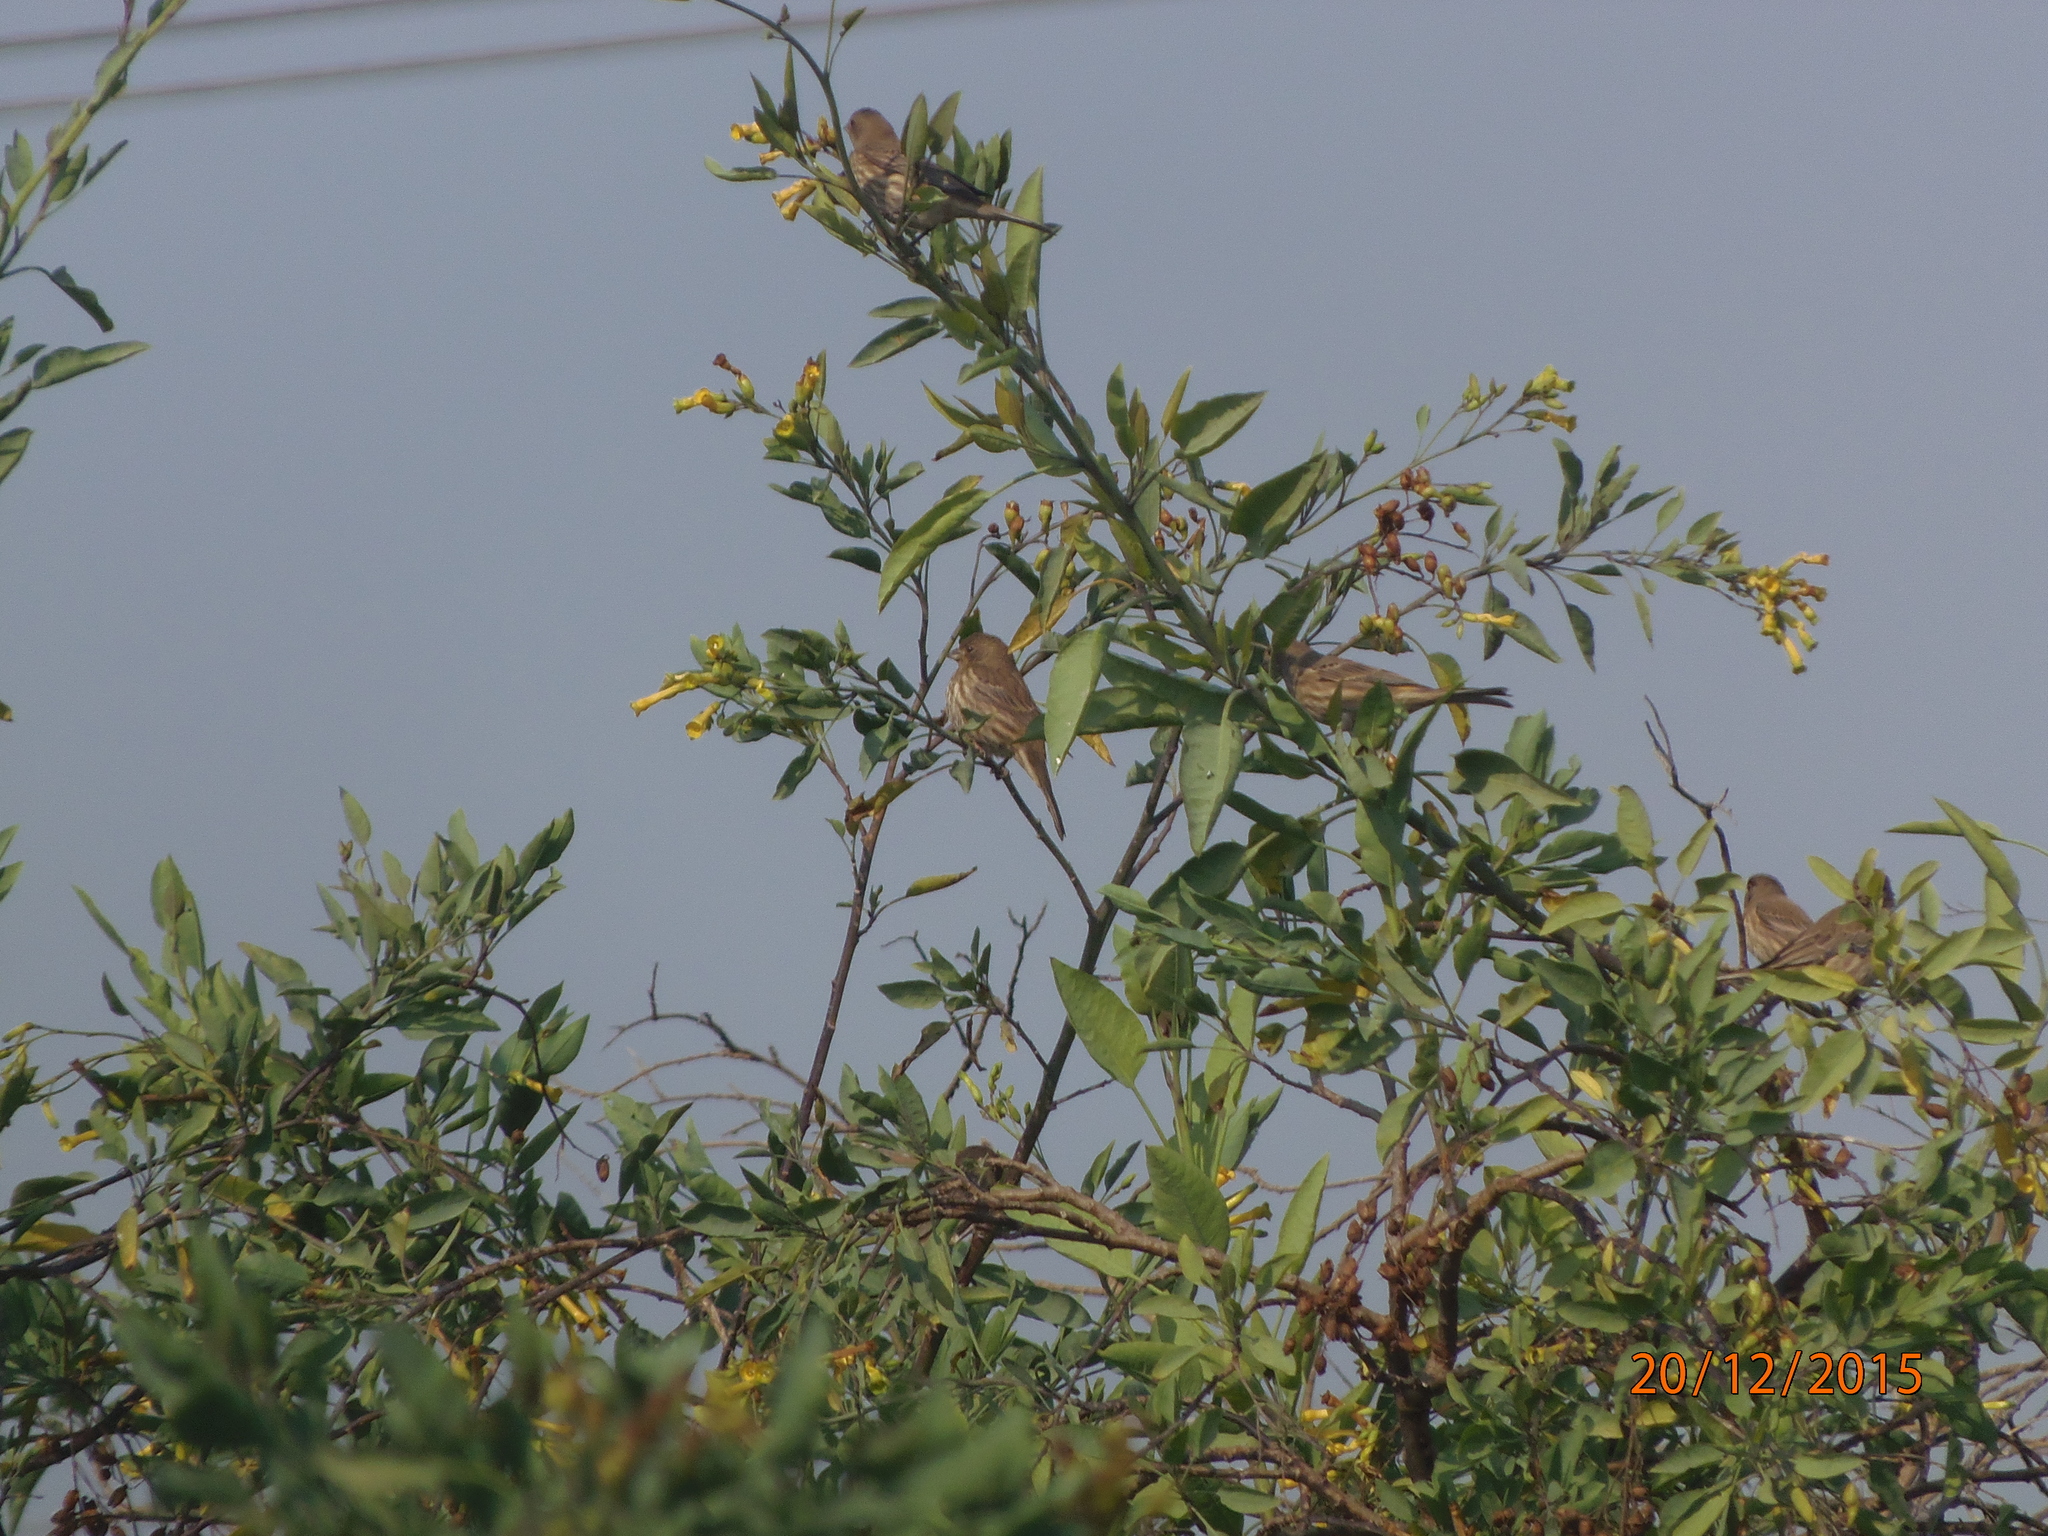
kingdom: Animalia
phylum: Chordata
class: Aves
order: Passeriformes
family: Fringillidae
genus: Haemorhous
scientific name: Haemorhous mexicanus
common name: House finch
